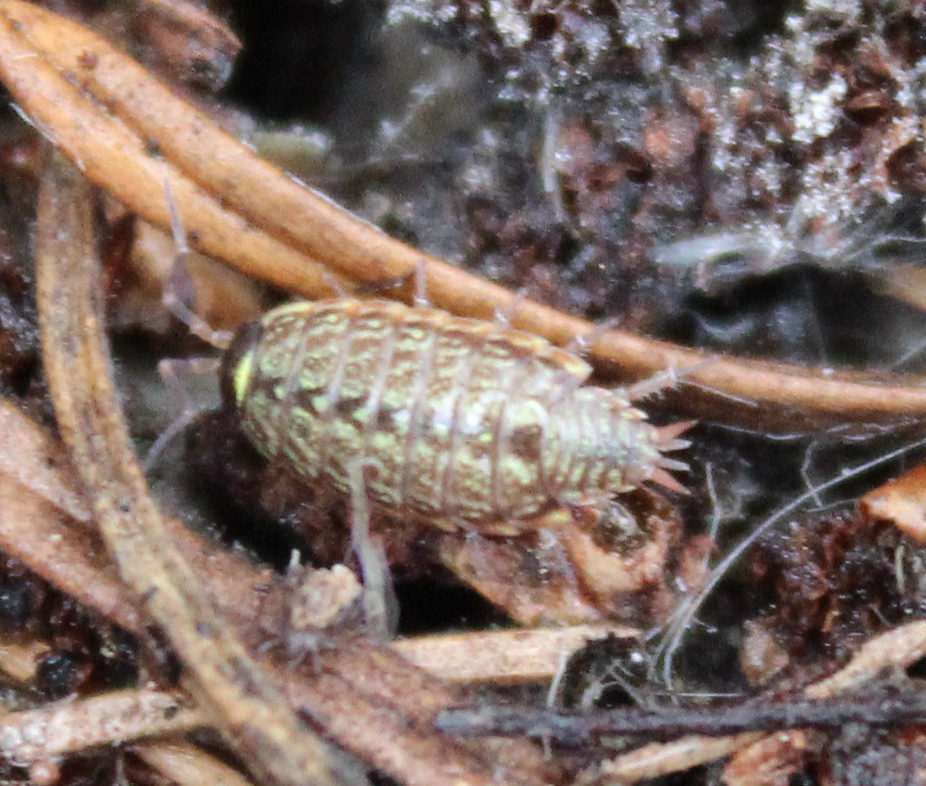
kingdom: Animalia
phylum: Arthropoda
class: Malacostraca
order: Isopoda
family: Philosciidae
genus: Philoscia
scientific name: Philoscia muscorum
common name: Common striped woodlouse
